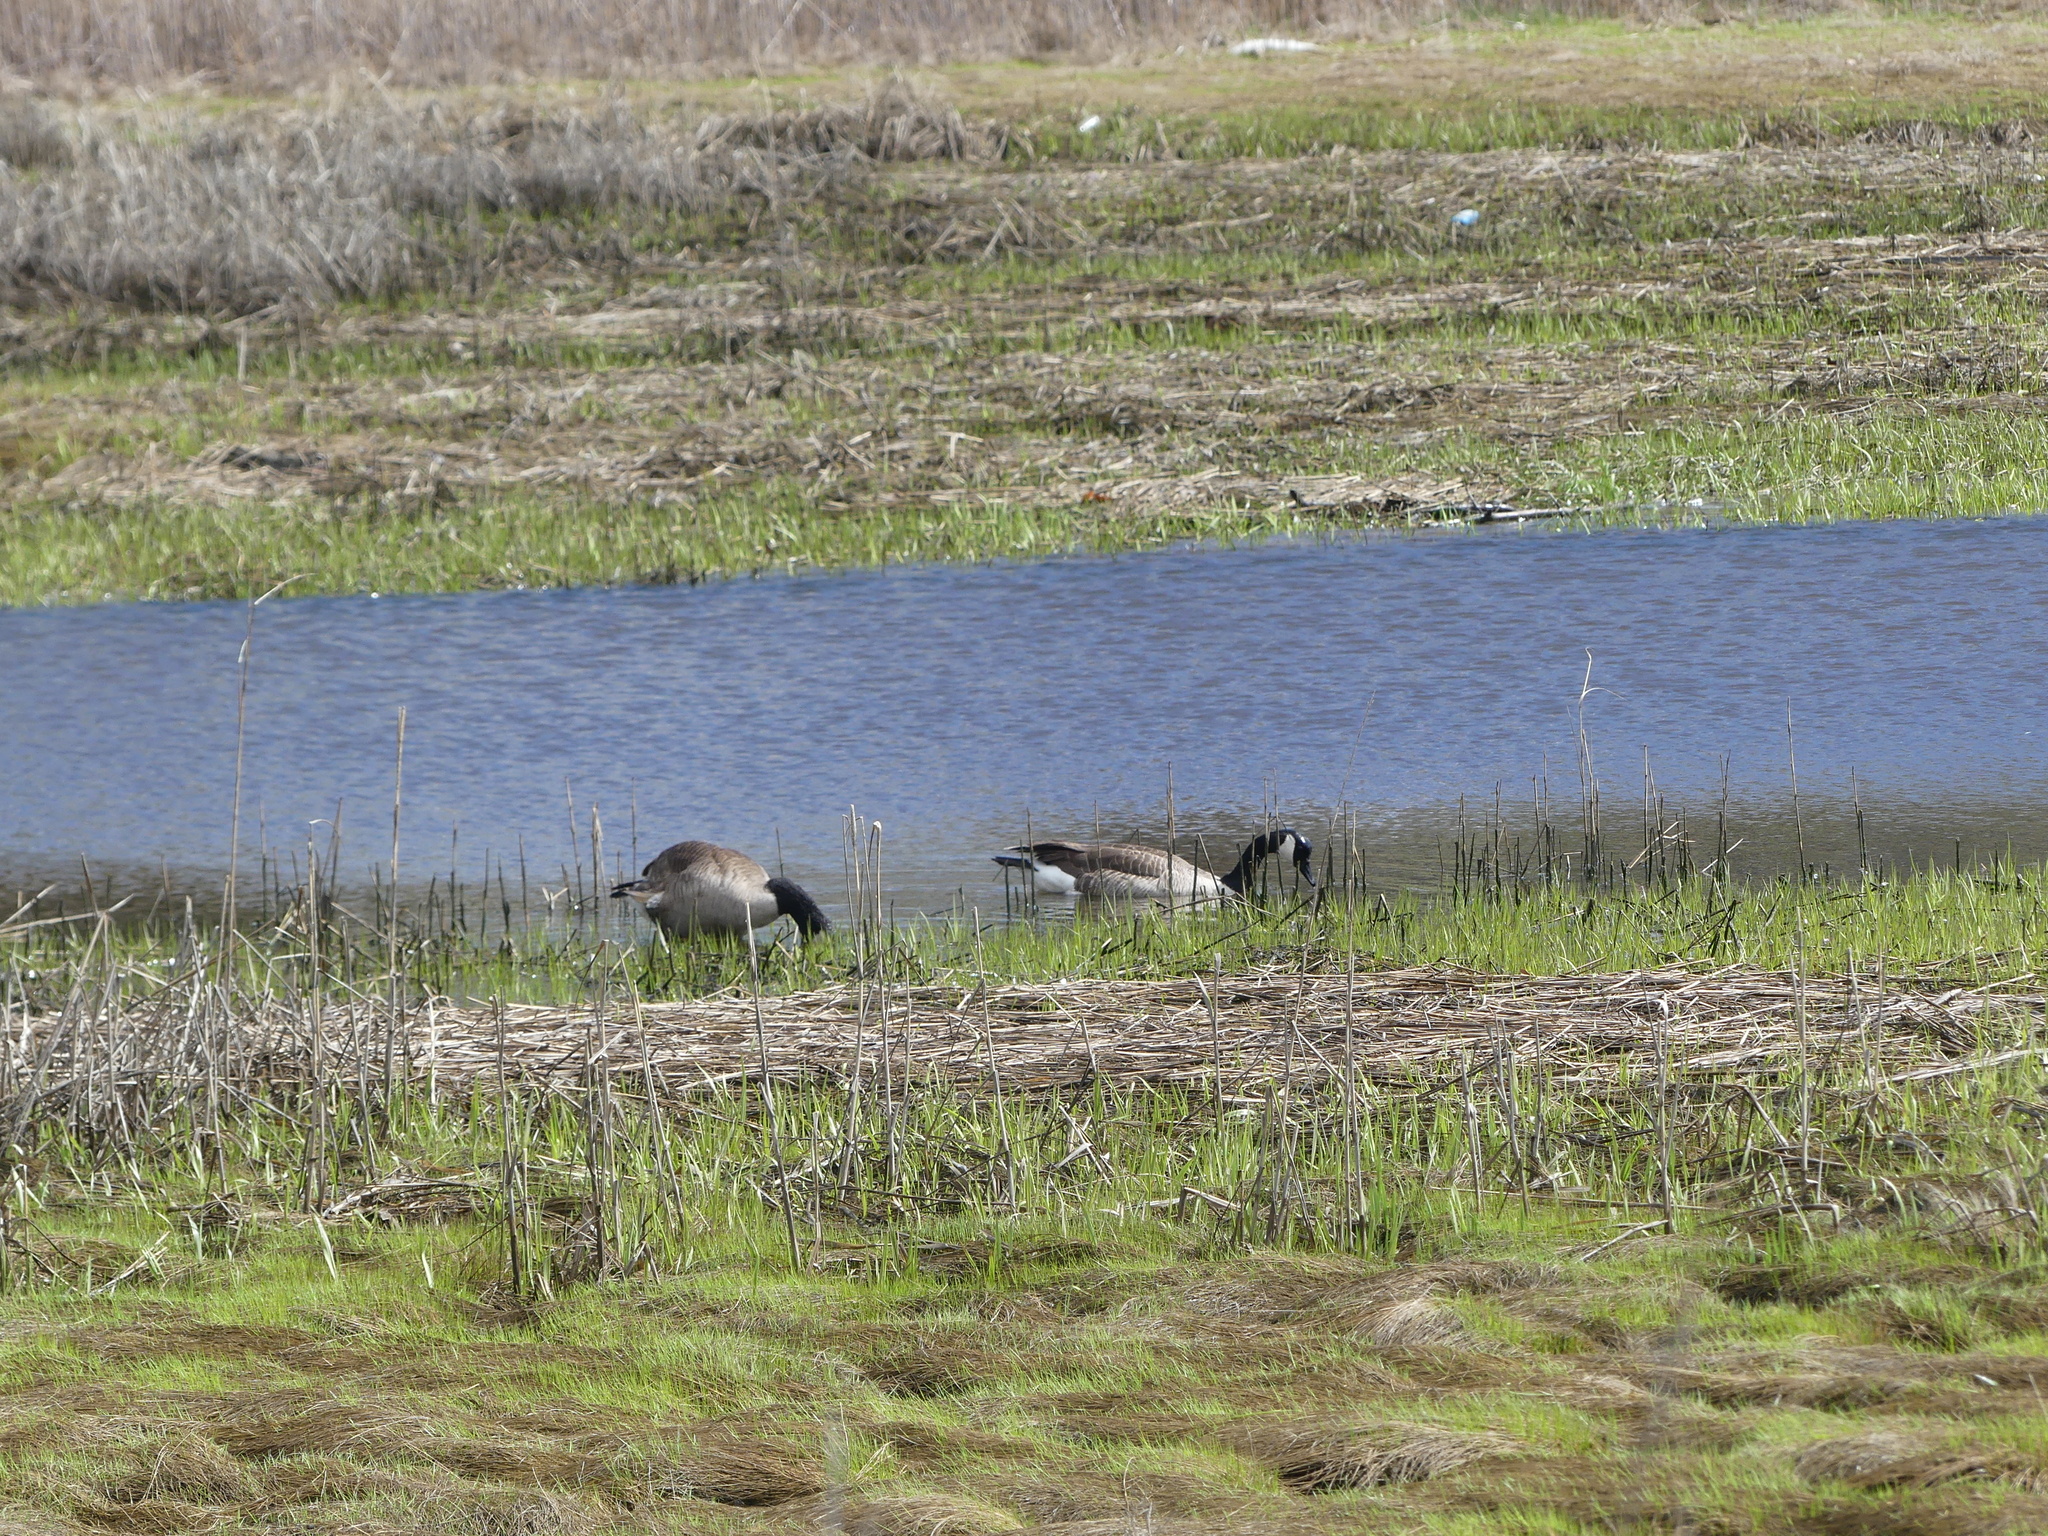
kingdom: Animalia
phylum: Chordata
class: Aves
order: Anseriformes
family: Anatidae
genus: Branta
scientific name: Branta canadensis
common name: Canada goose
